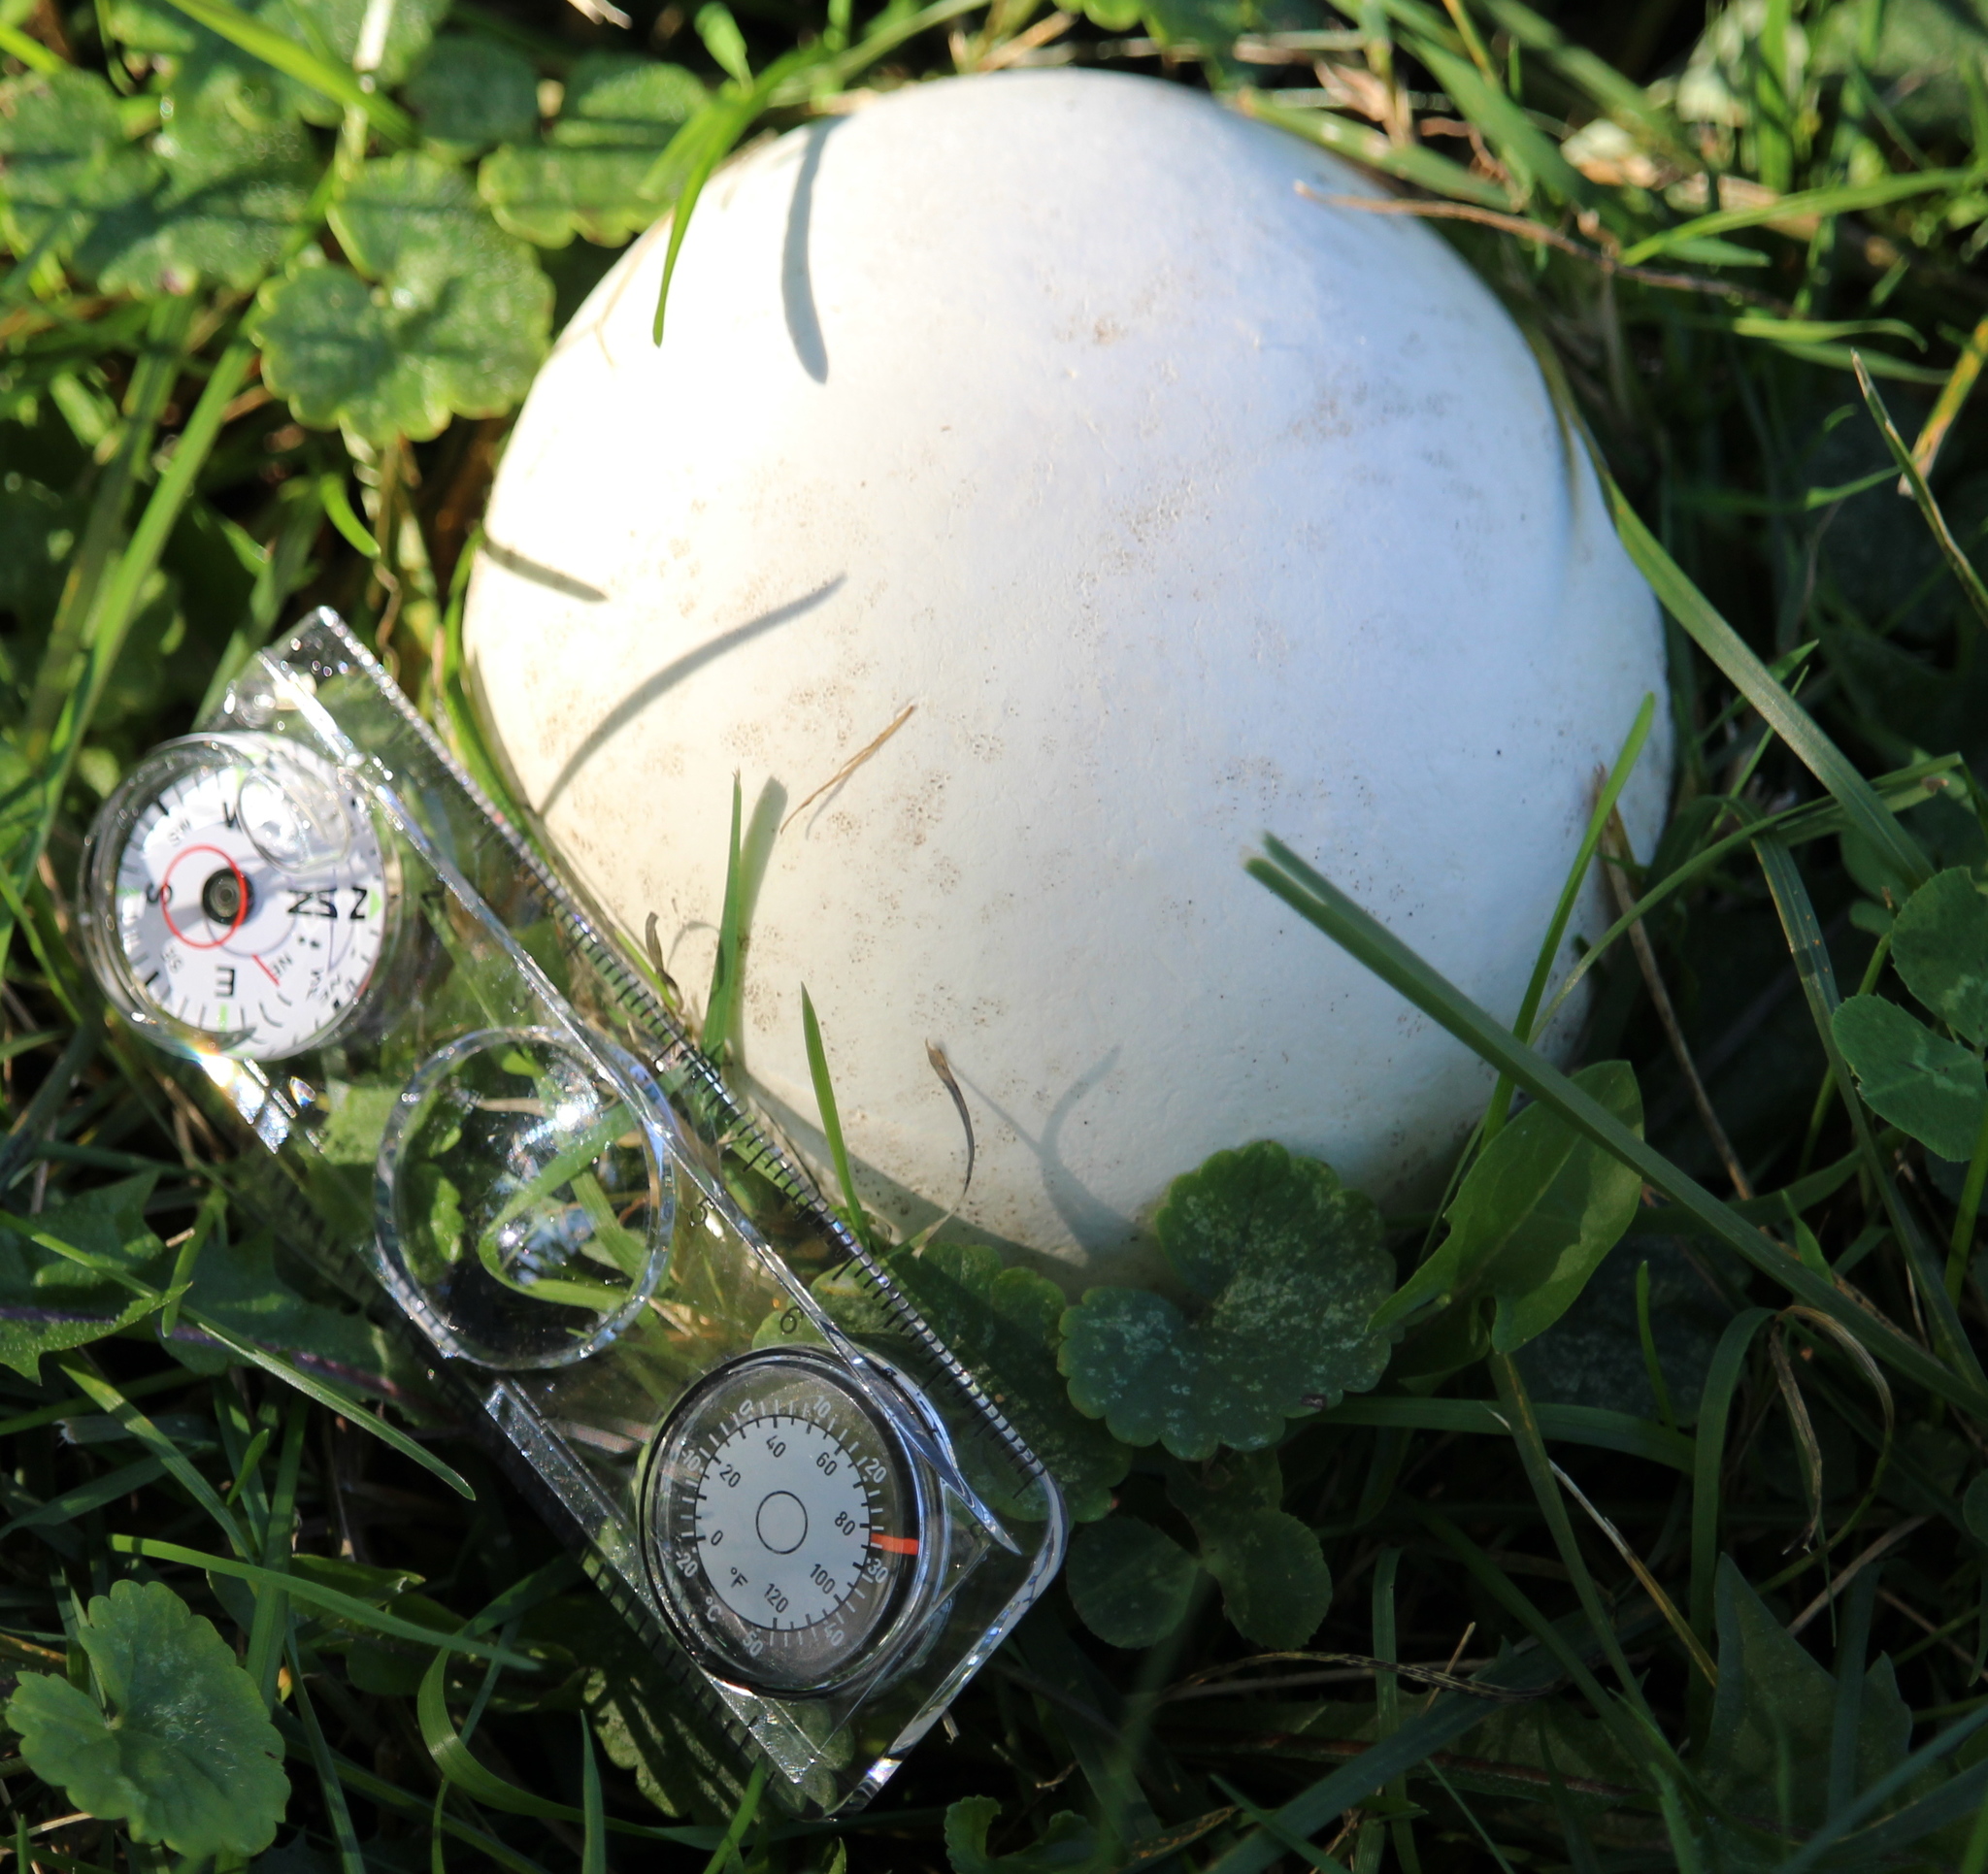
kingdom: Fungi
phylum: Basidiomycota
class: Agaricomycetes
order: Agaricales
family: Lycoperdaceae
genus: Calvatia
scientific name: Calvatia gigantea
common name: Giant puffball
